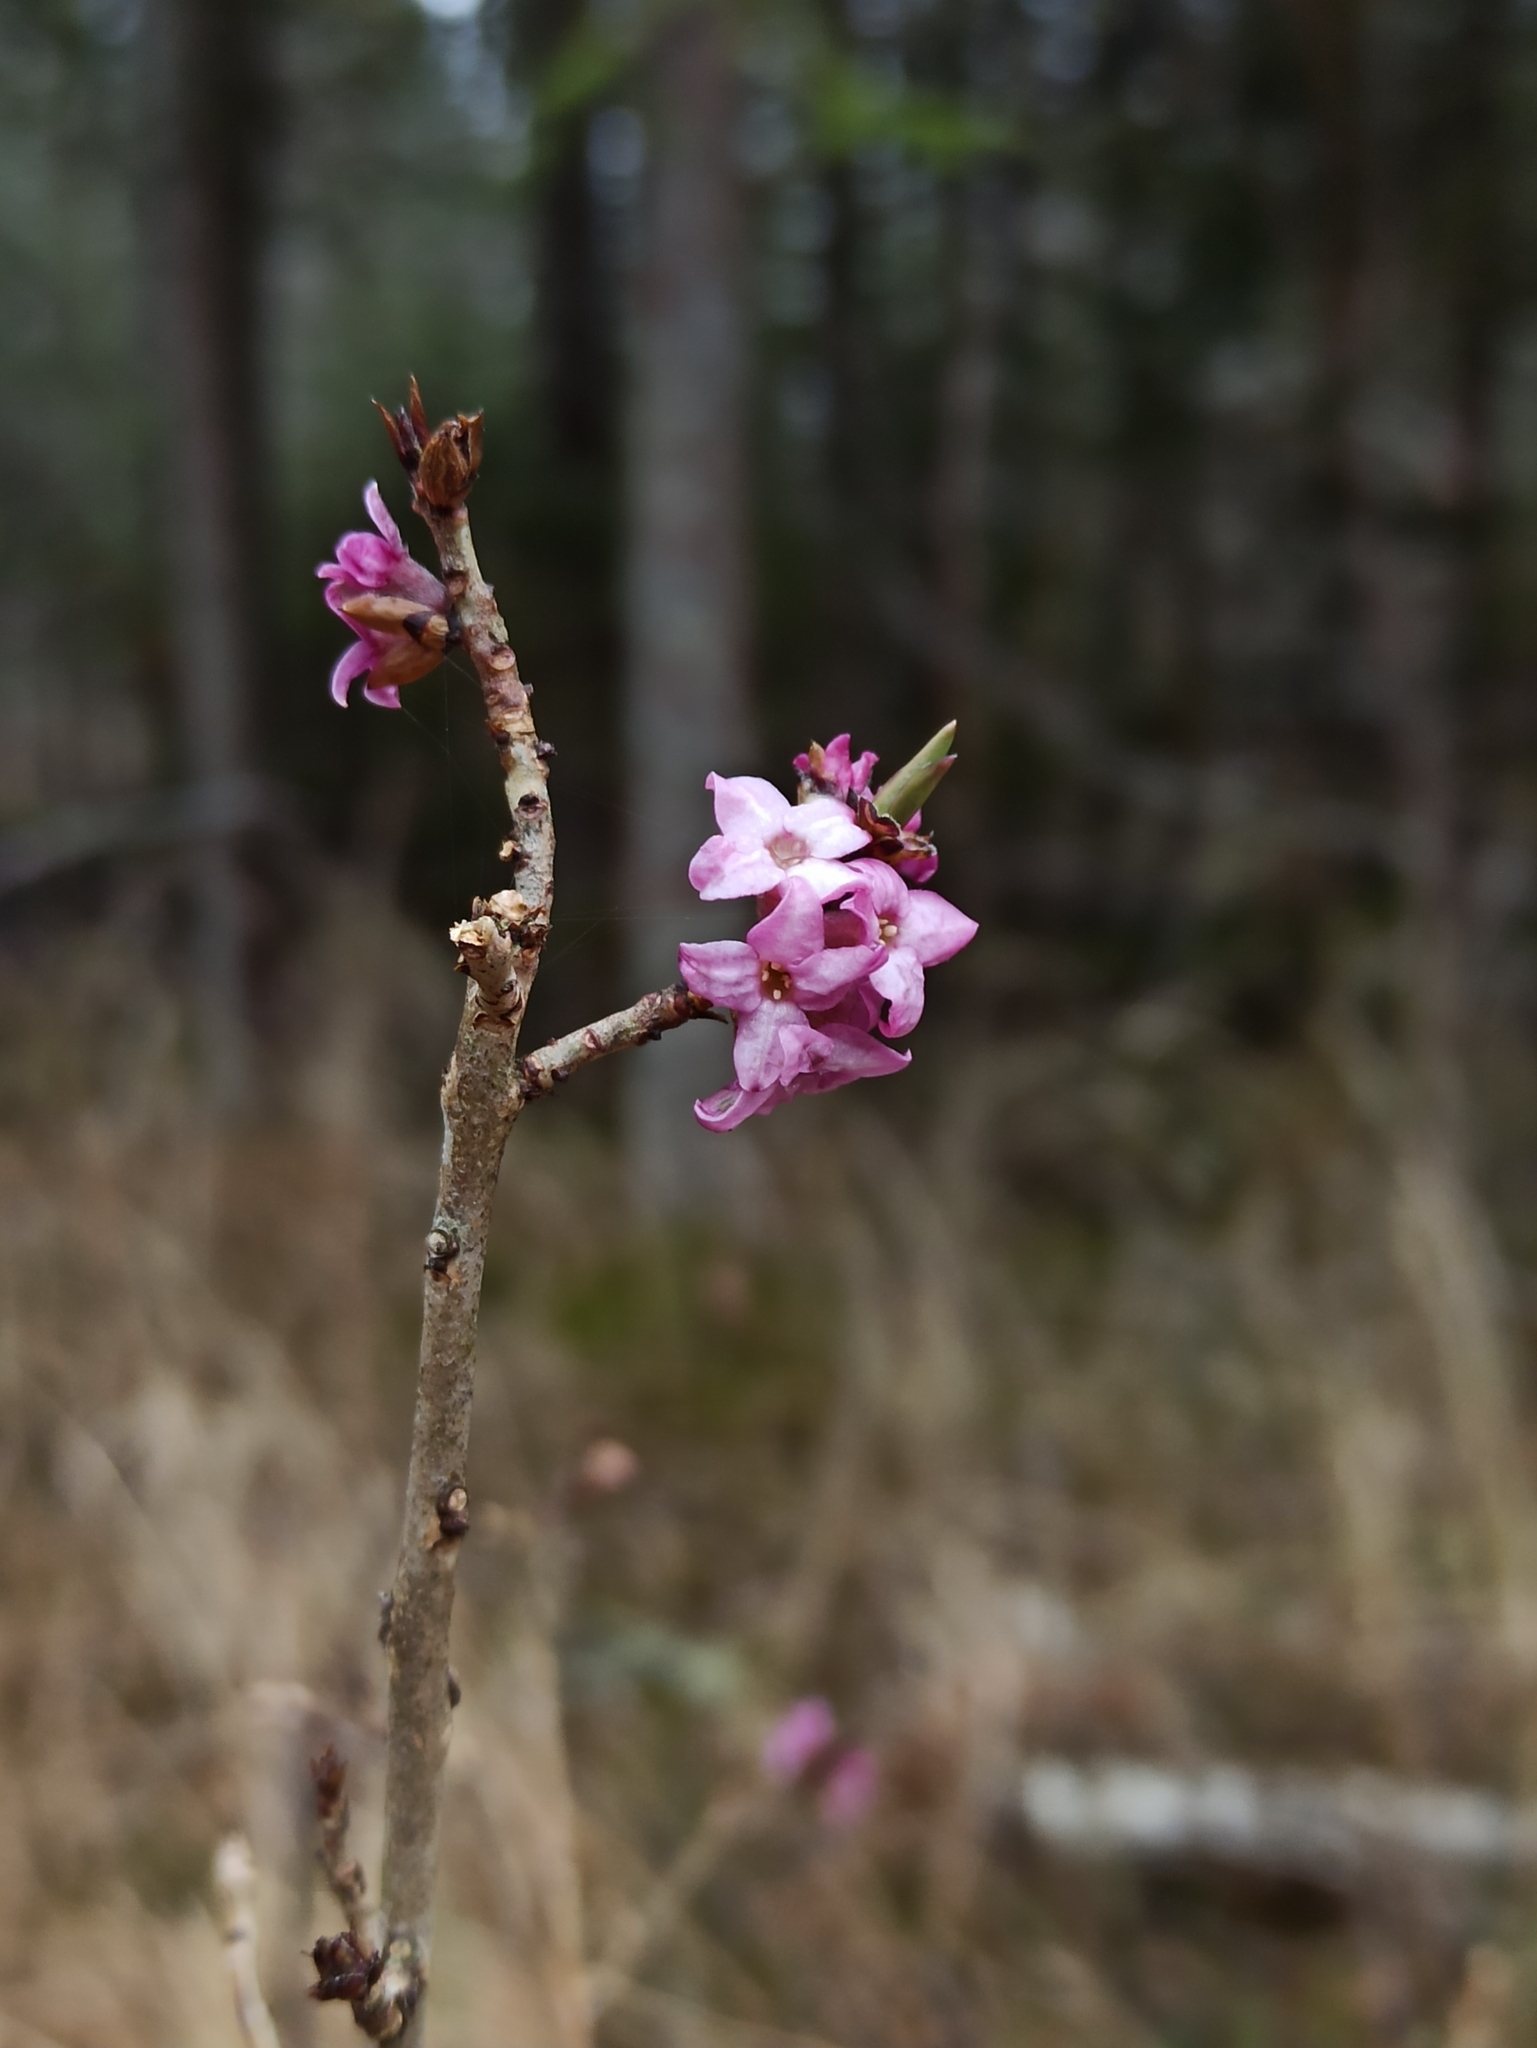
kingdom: Plantae
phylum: Tracheophyta
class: Magnoliopsida
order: Malvales
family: Thymelaeaceae
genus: Daphne
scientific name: Daphne mezereum
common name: Mezereon
